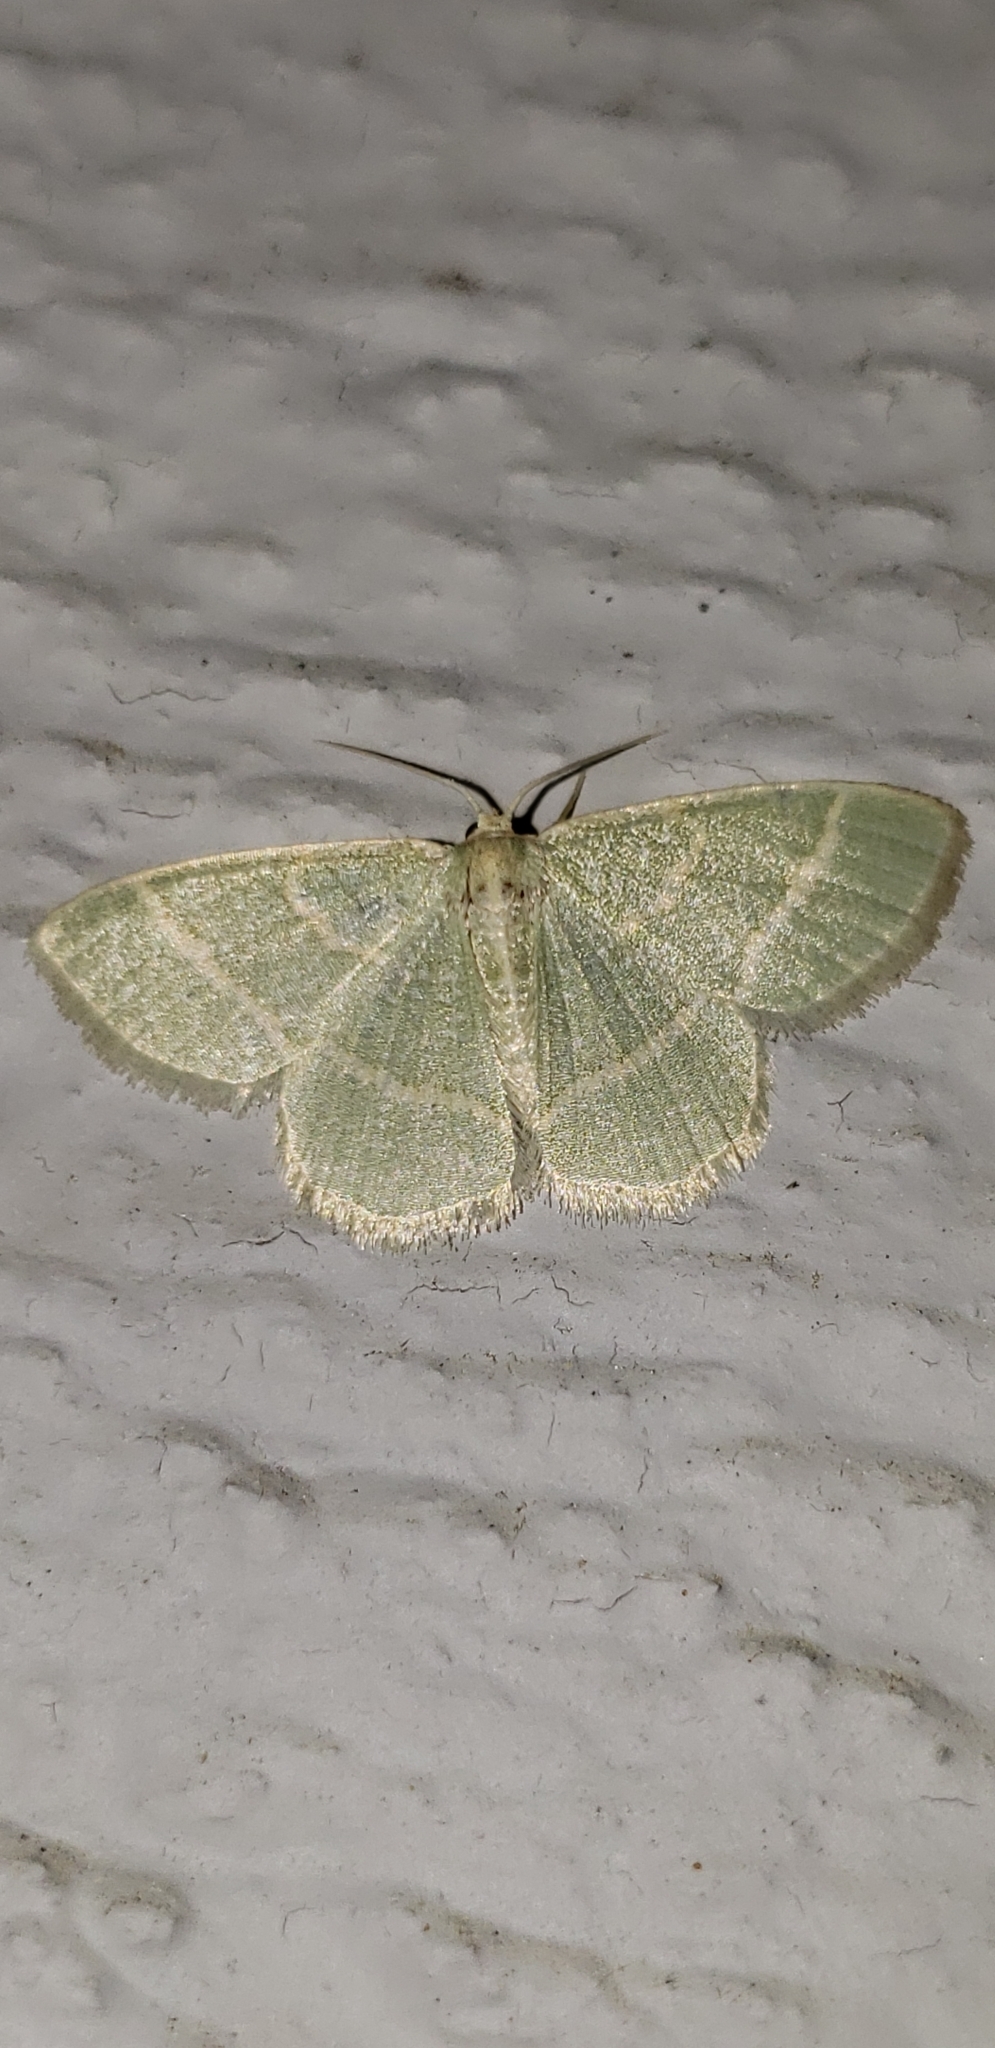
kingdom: Animalia
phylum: Arthropoda
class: Insecta
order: Lepidoptera
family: Geometridae
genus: Chlorochlamys
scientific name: Chlorochlamys chloroleucaria
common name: Blackberry looper
